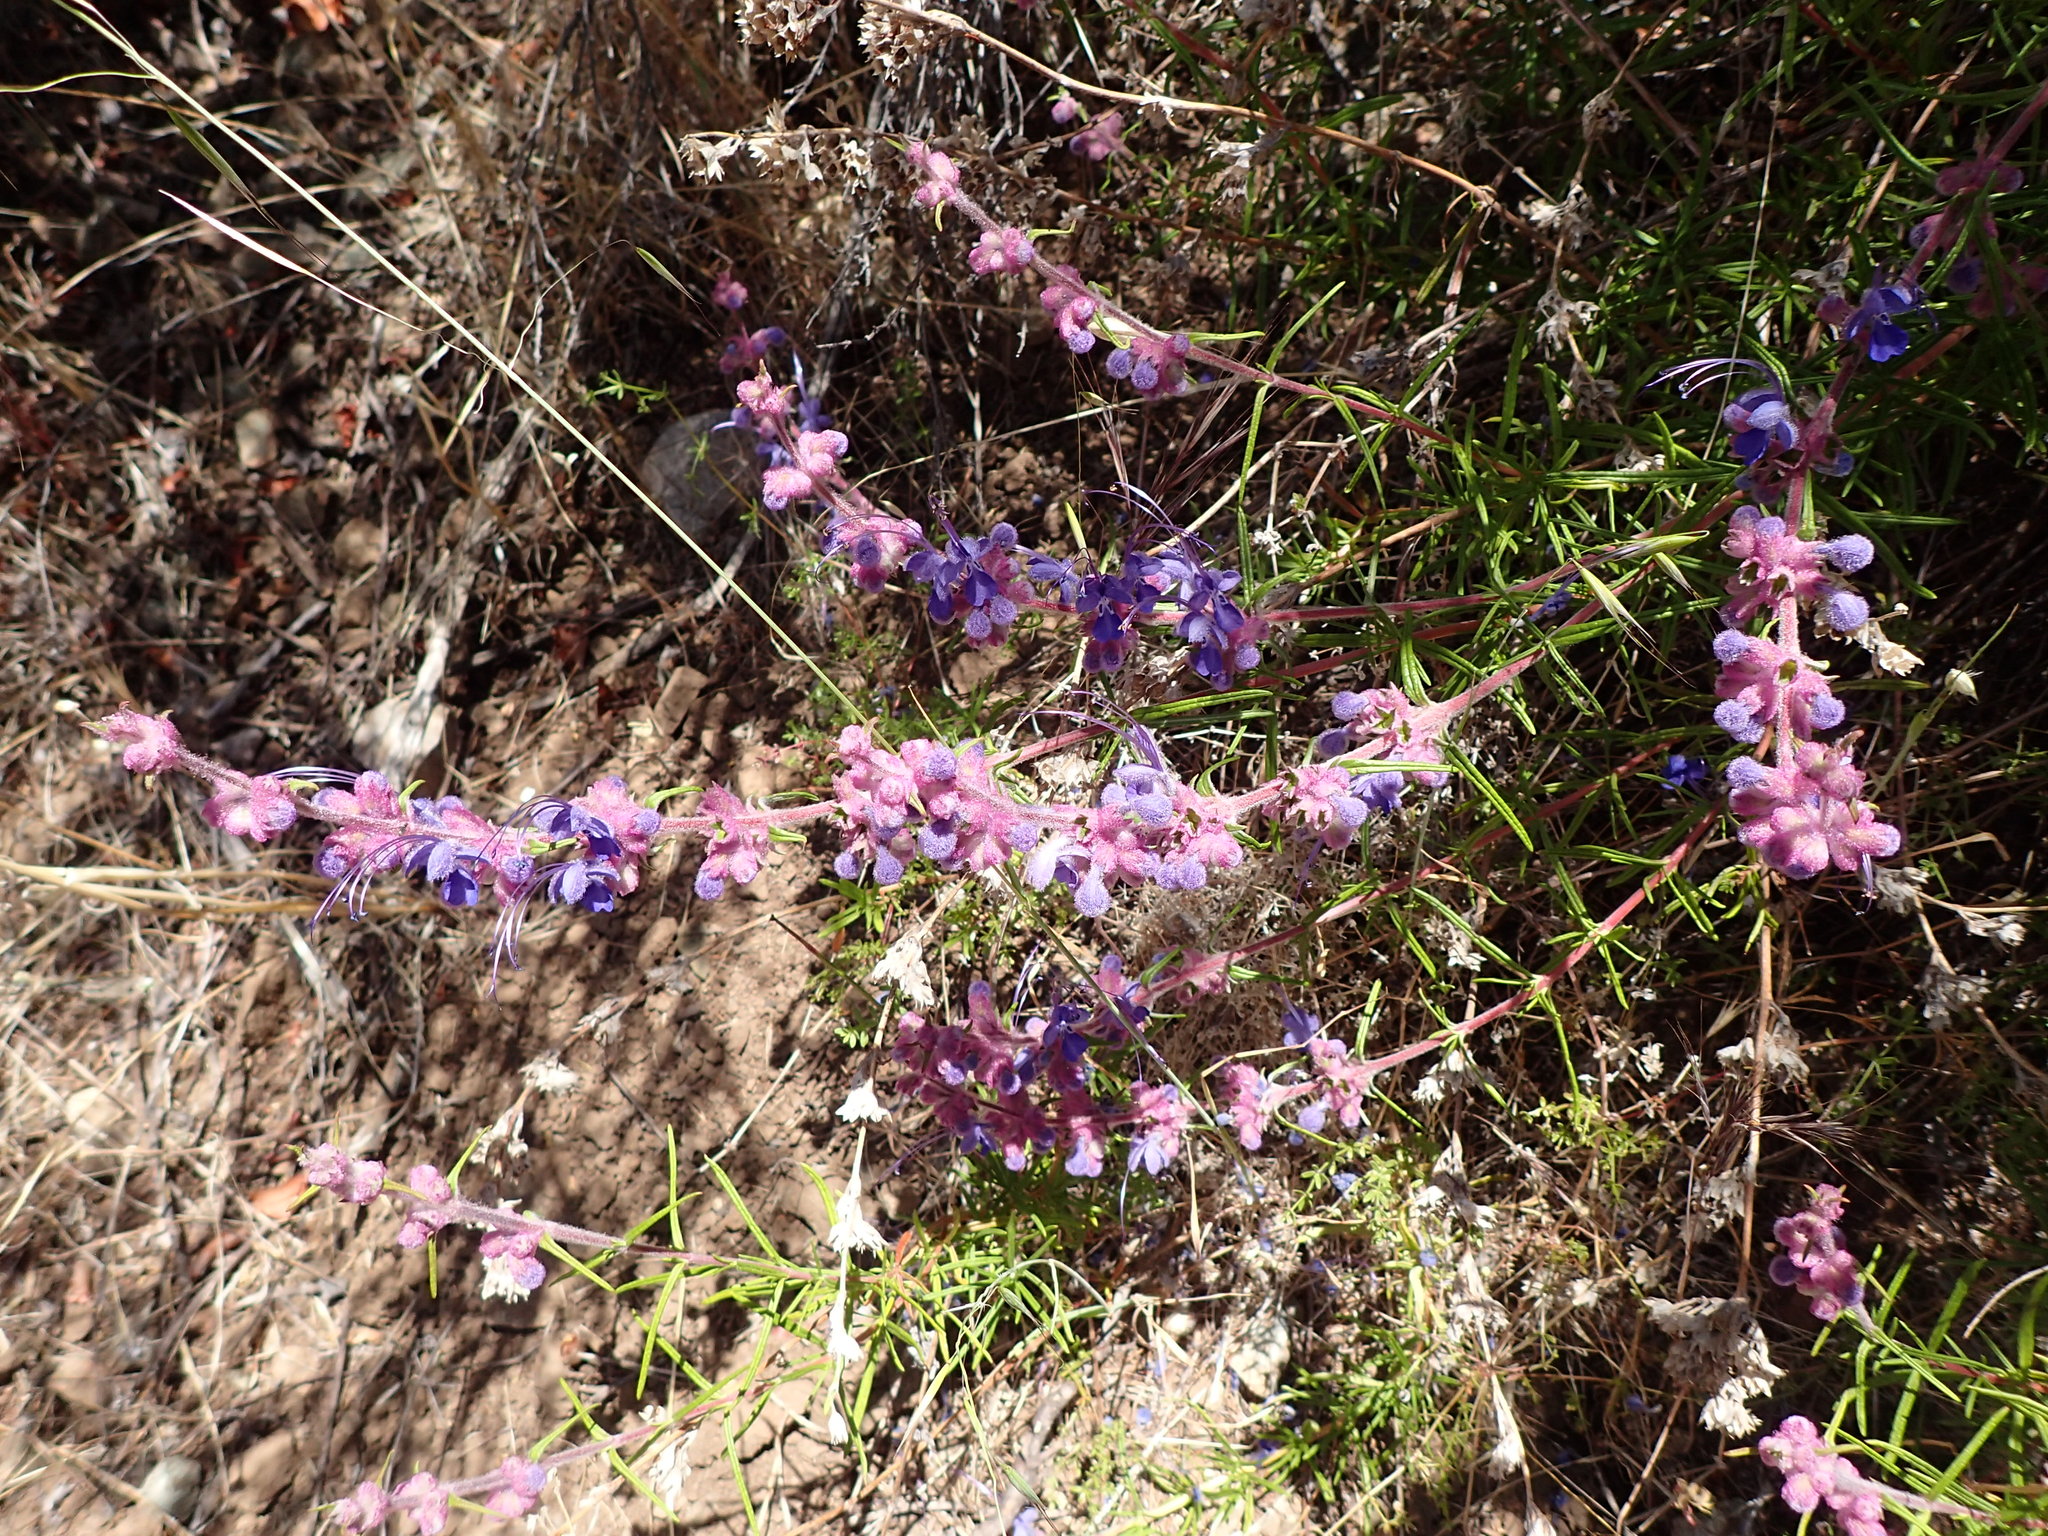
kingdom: Plantae
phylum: Tracheophyta
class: Magnoliopsida
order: Lamiales
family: Lamiaceae
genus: Trichostema
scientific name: Trichostema lanatum
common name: Woolly bluecurls
